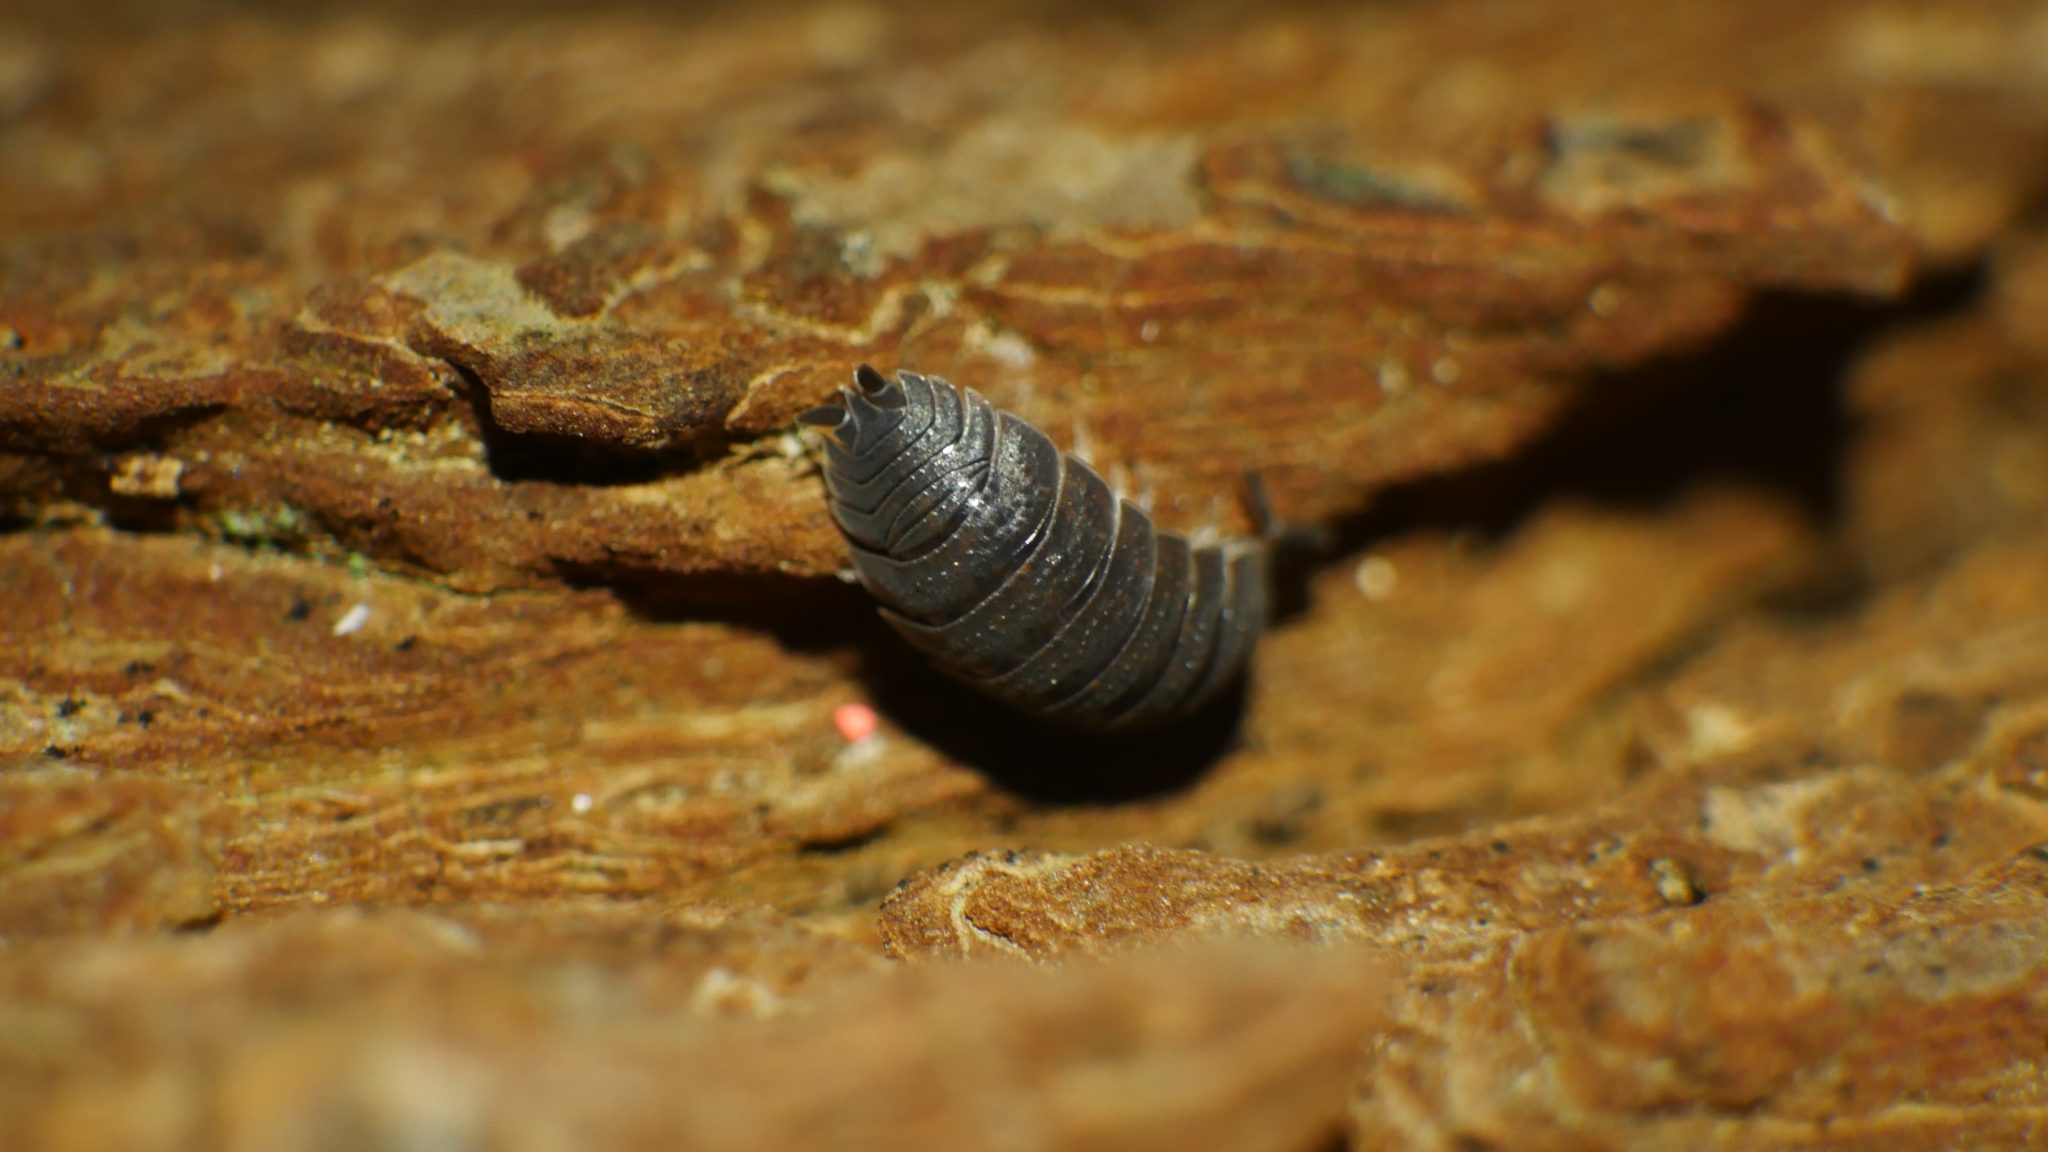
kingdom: Animalia
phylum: Arthropoda
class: Malacostraca
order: Isopoda
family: Porcellionidae
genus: Porcellio
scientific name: Porcellio scaber
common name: Common rough woodlouse
